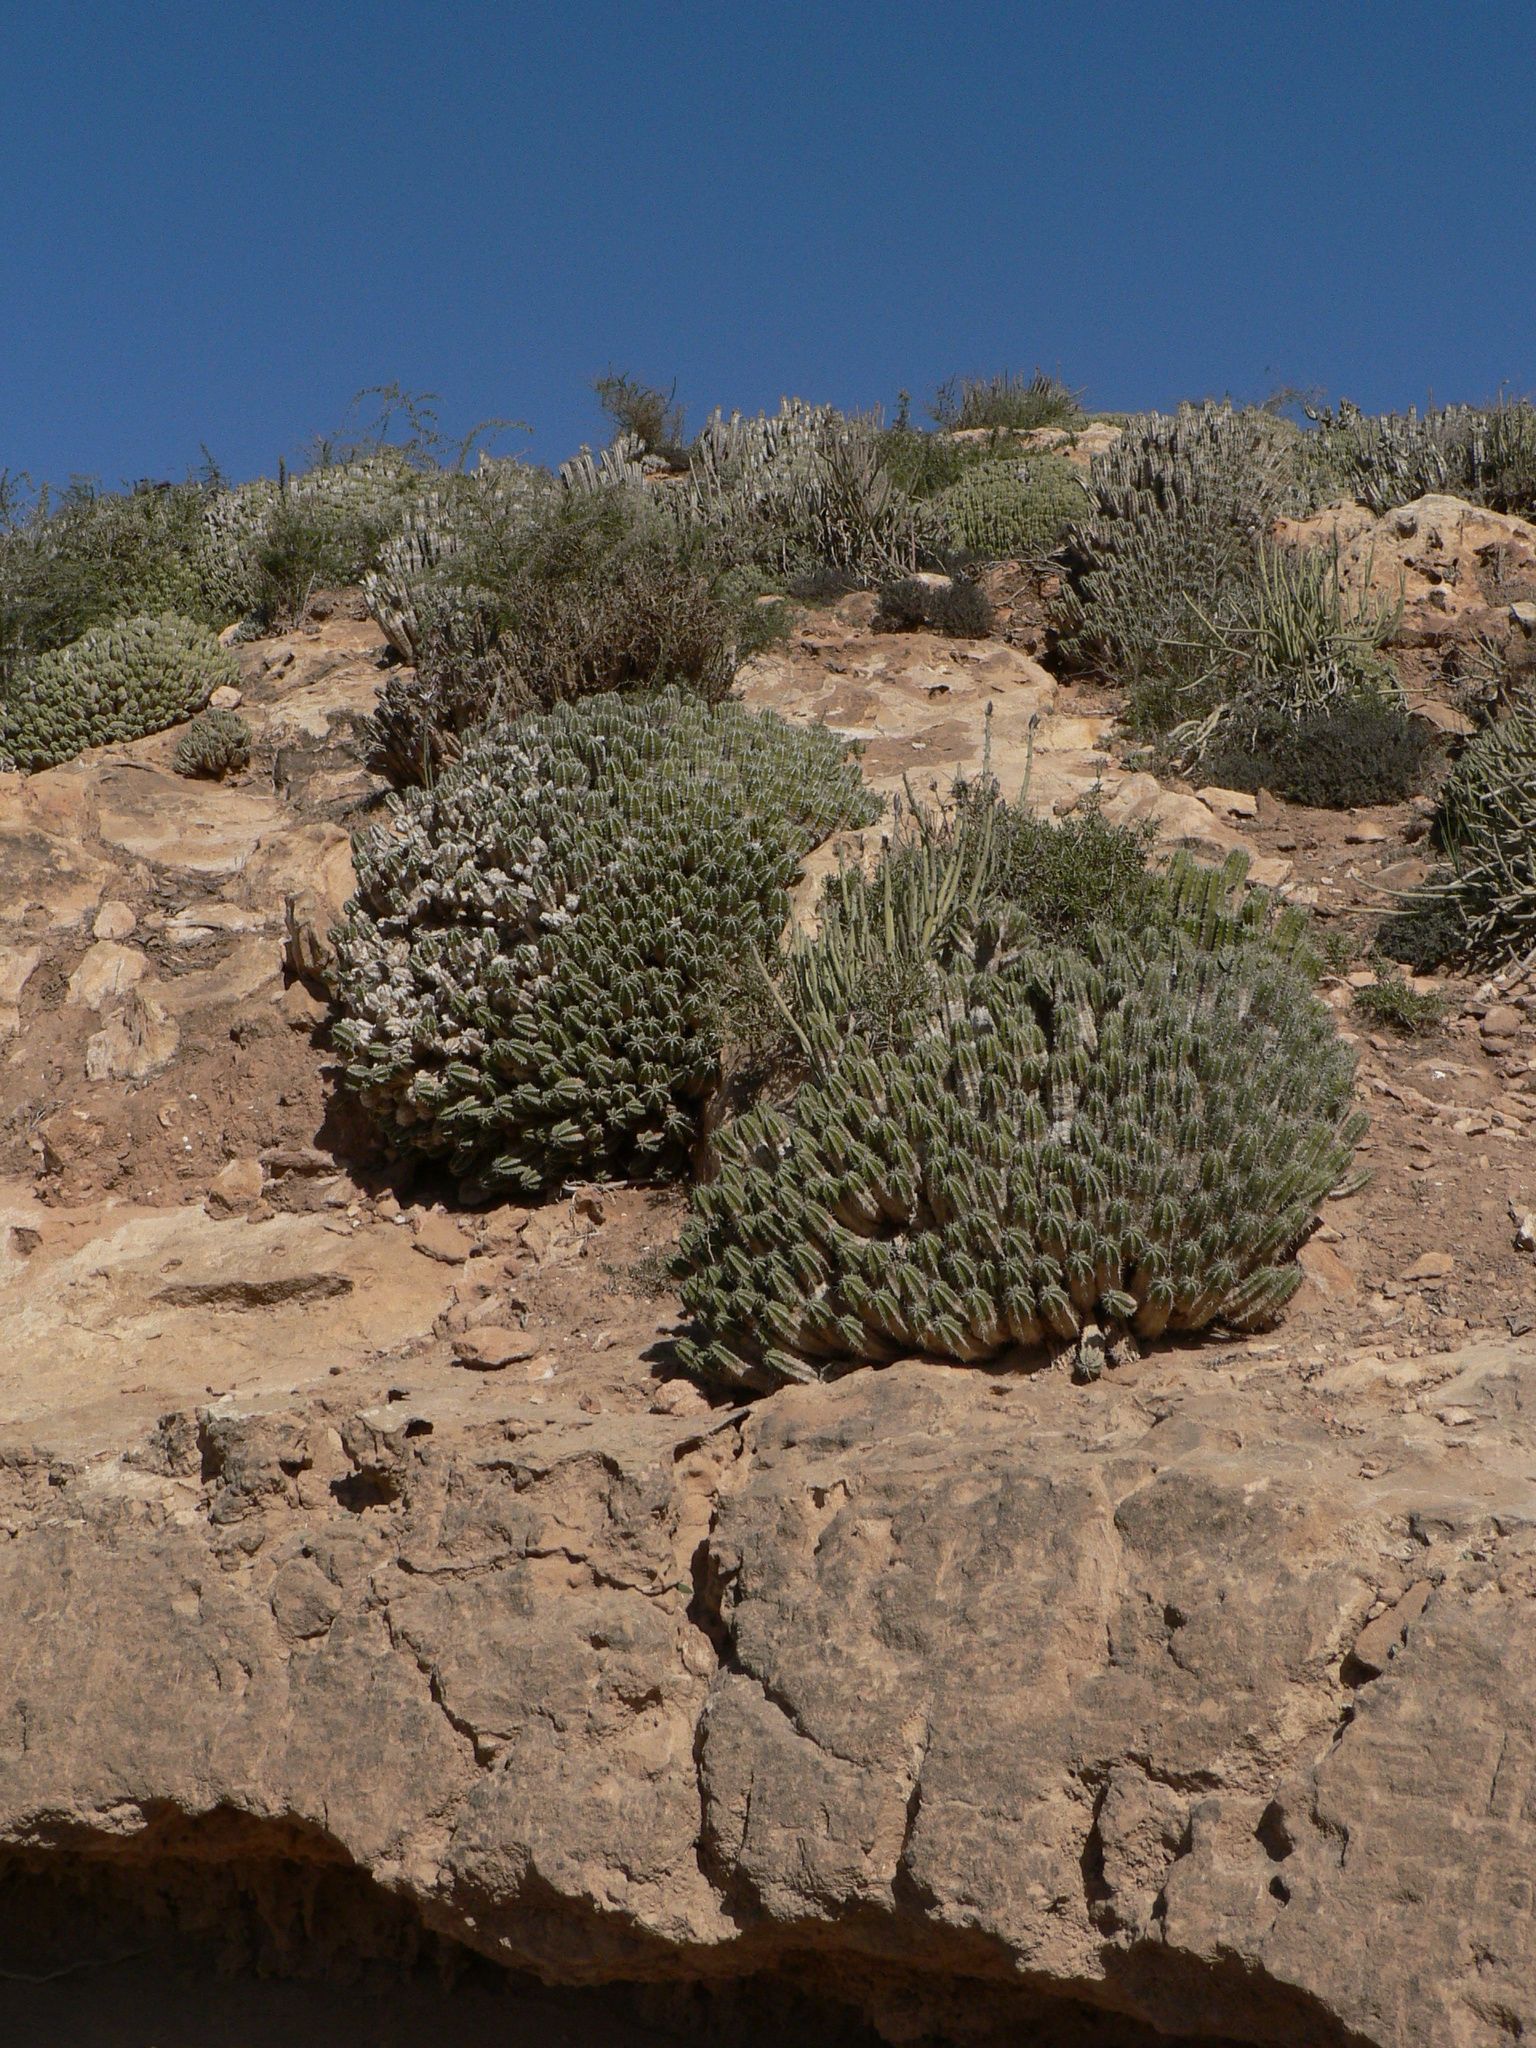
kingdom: Plantae
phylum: Tracheophyta
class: Magnoliopsida
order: Malpighiales
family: Euphorbiaceae
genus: Euphorbia
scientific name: Euphorbia officinarum
